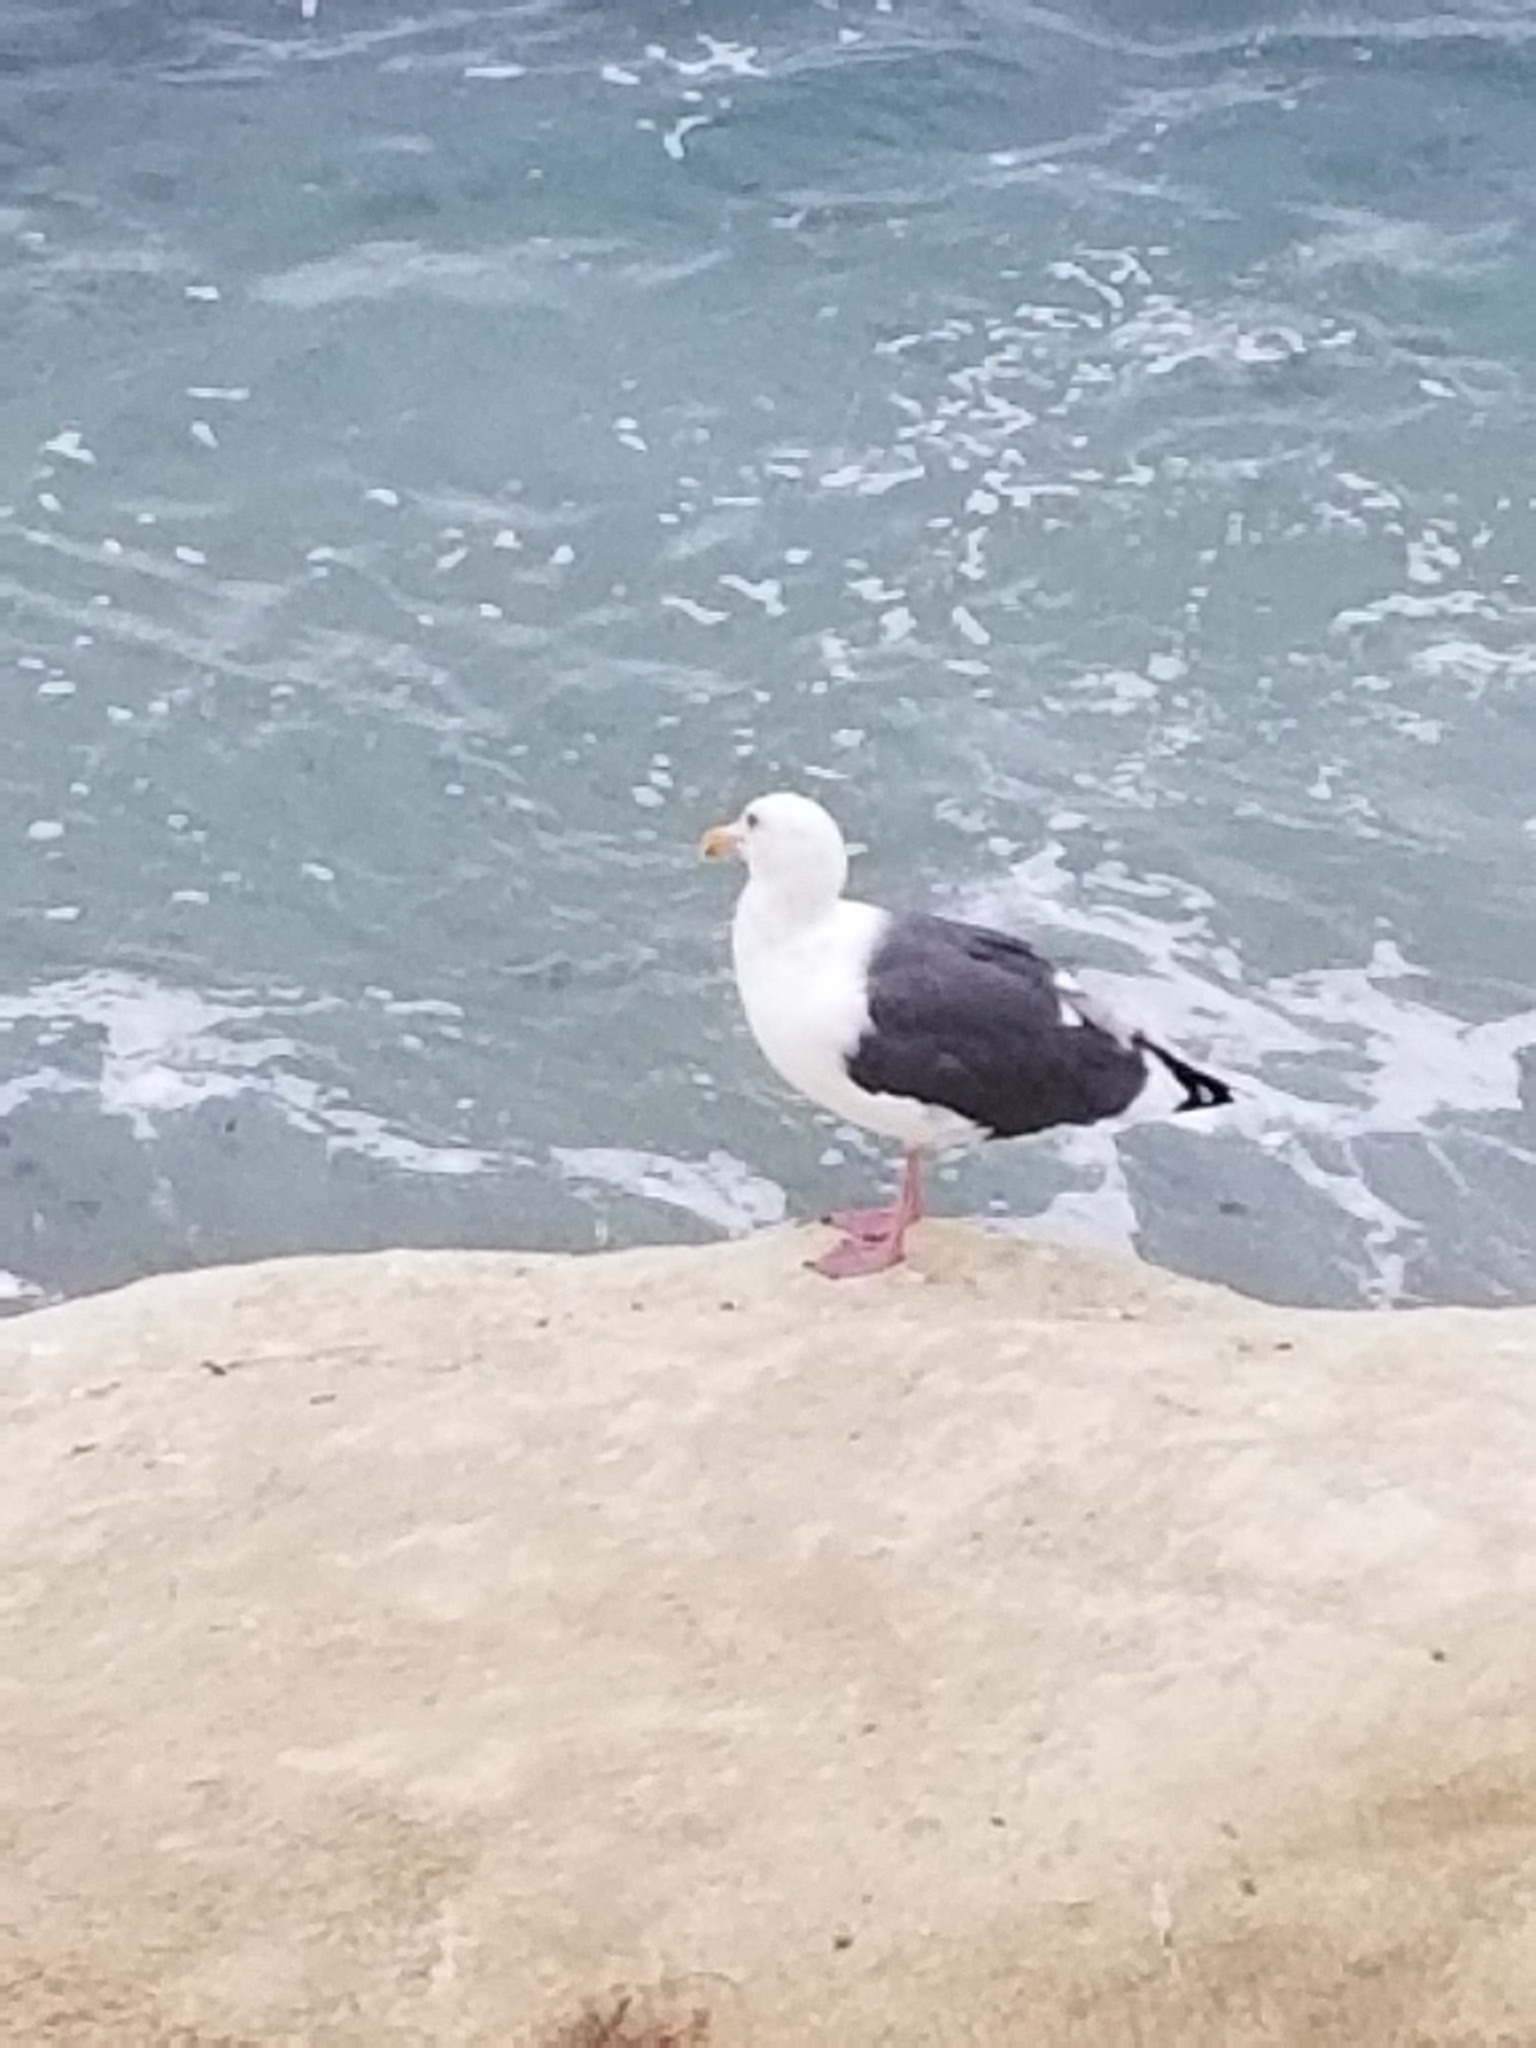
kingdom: Animalia
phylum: Chordata
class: Aves
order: Charadriiformes
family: Laridae
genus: Larus
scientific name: Larus occidentalis
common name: Western gull
